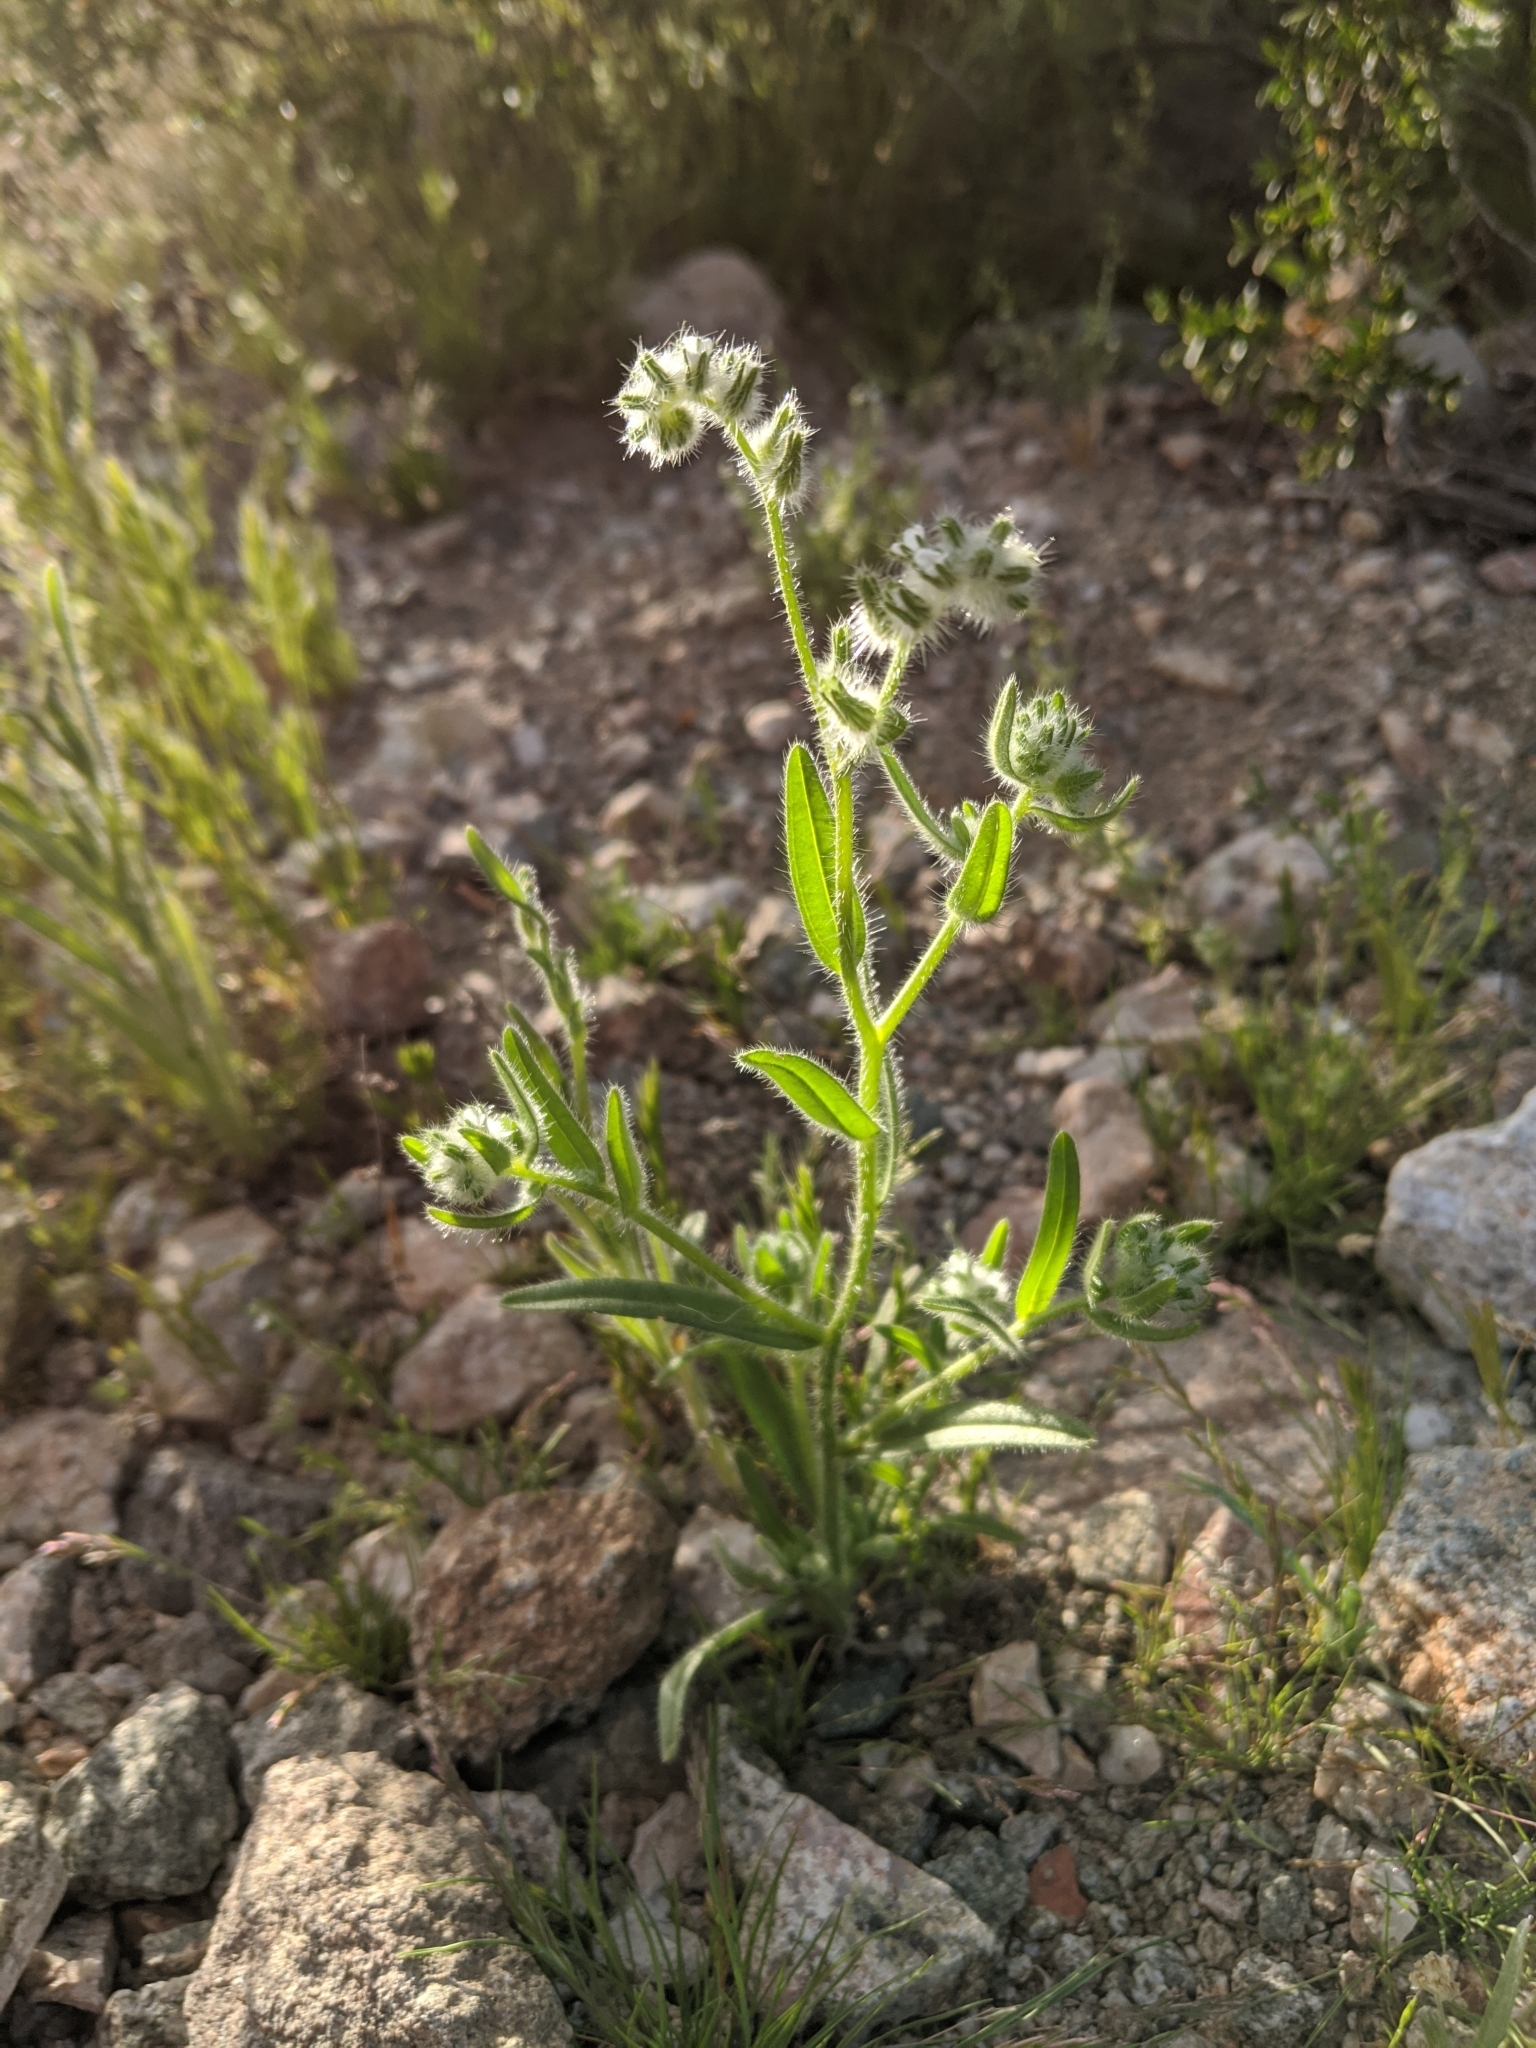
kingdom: Plantae
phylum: Tracheophyta
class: Magnoliopsida
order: Boraginales
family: Boraginaceae
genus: Johnstonella
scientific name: Johnstonella angustifolia
